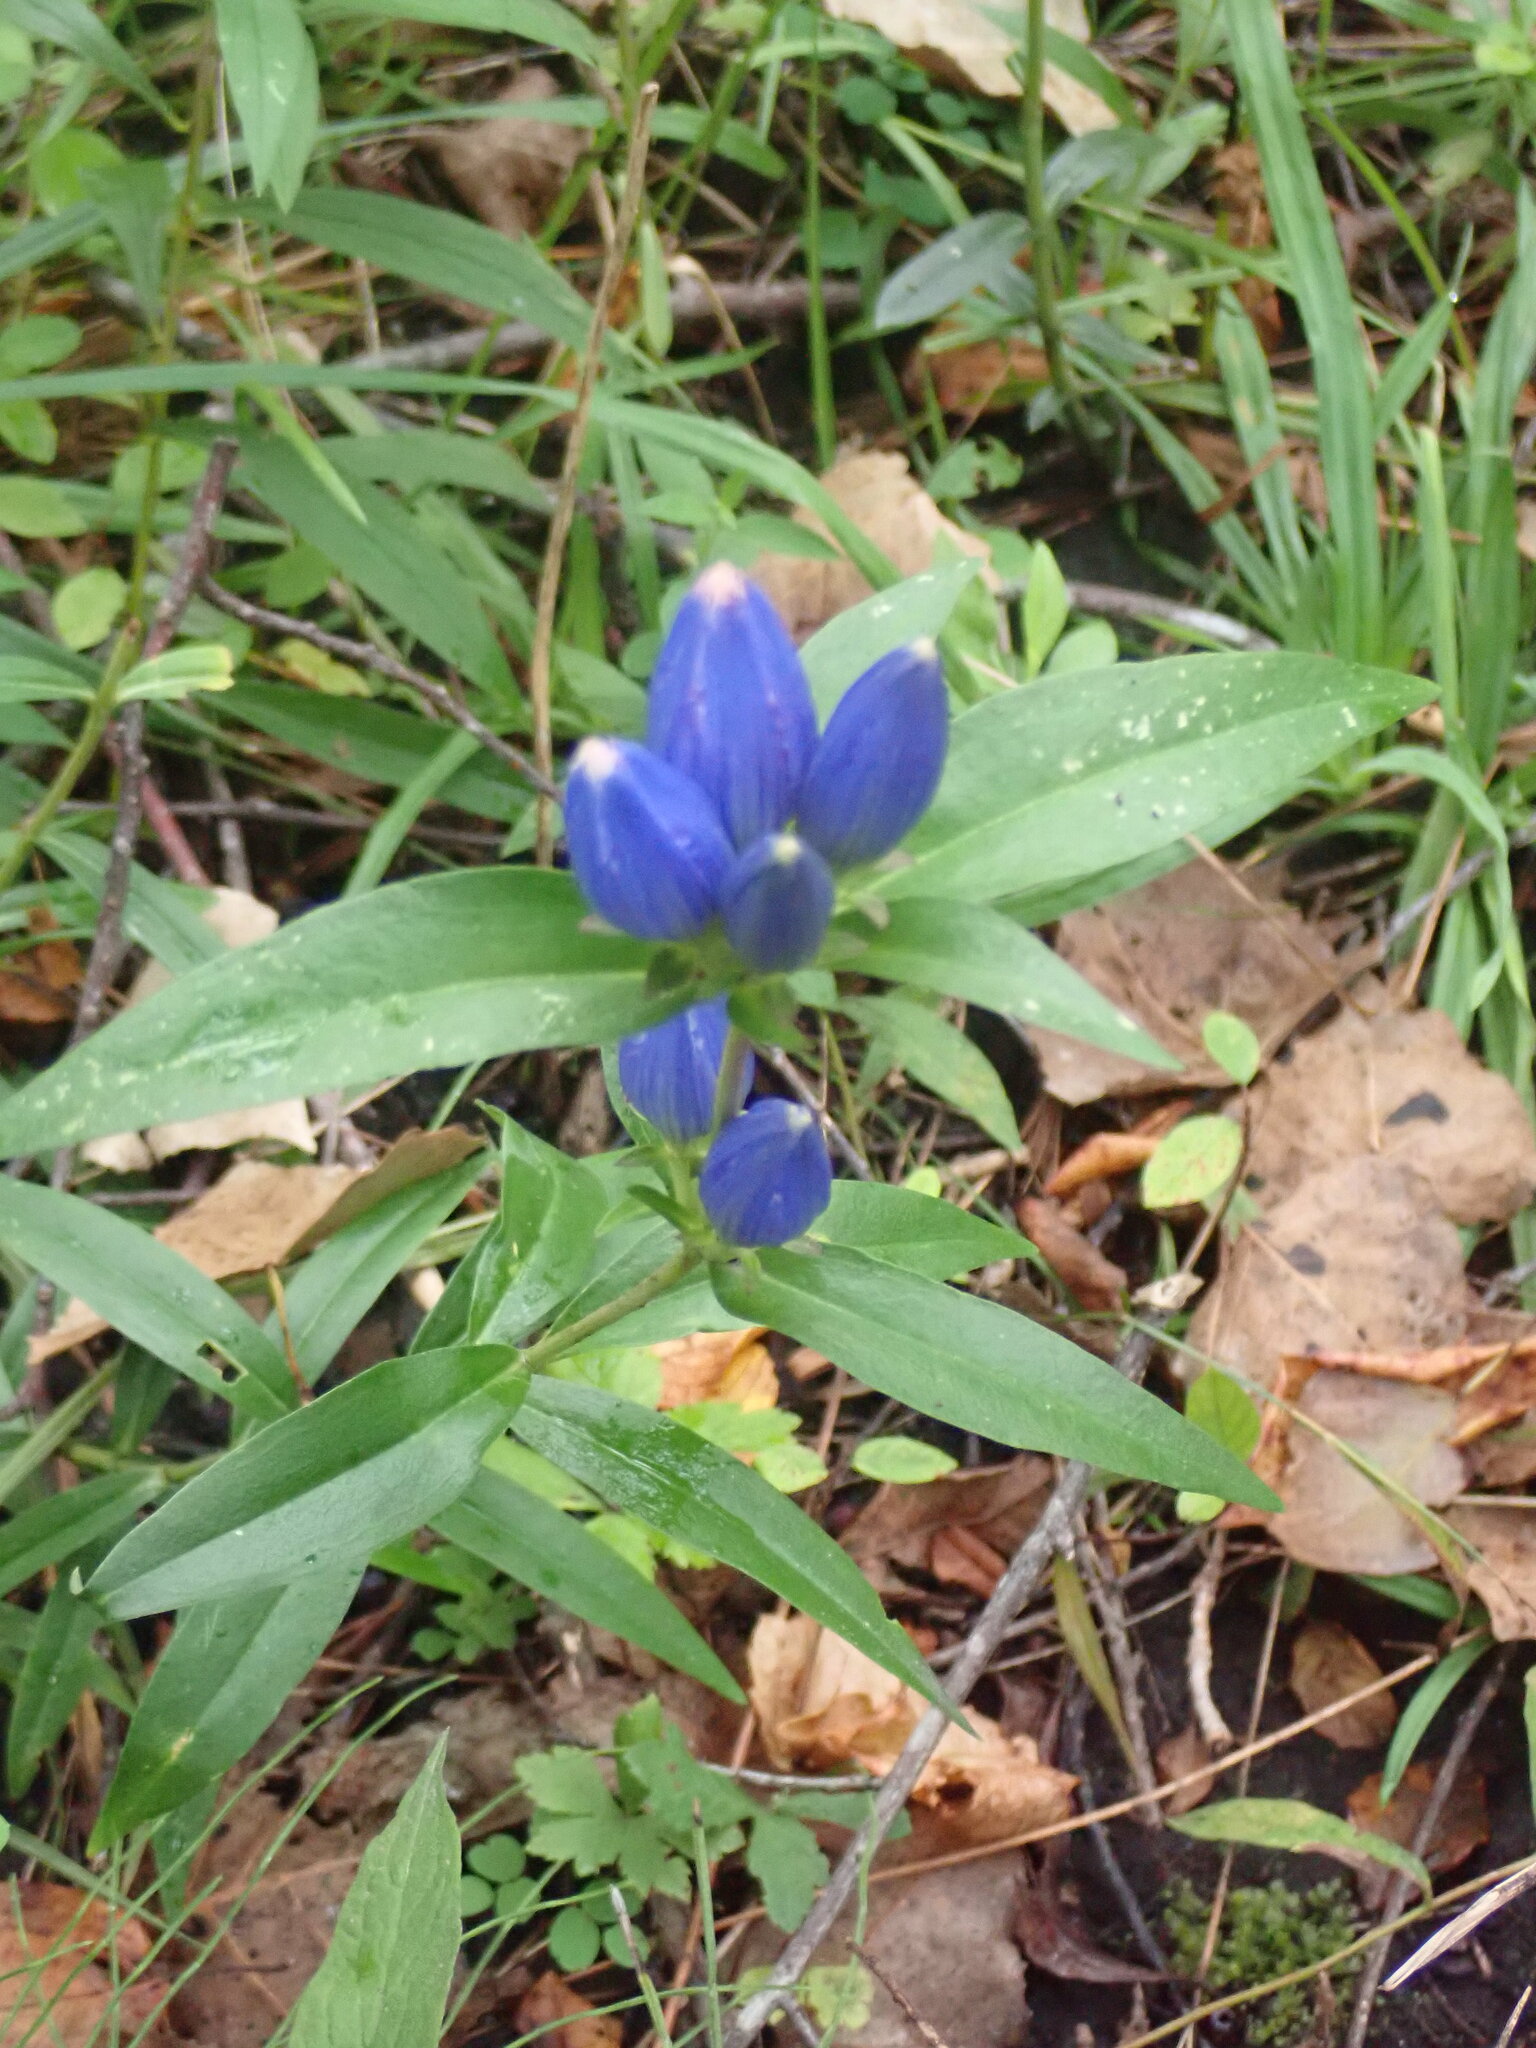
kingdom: Plantae
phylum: Tracheophyta
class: Magnoliopsida
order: Gentianales
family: Gentianaceae
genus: Gentiana
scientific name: Gentiana andrewsii
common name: Bottle gentian
